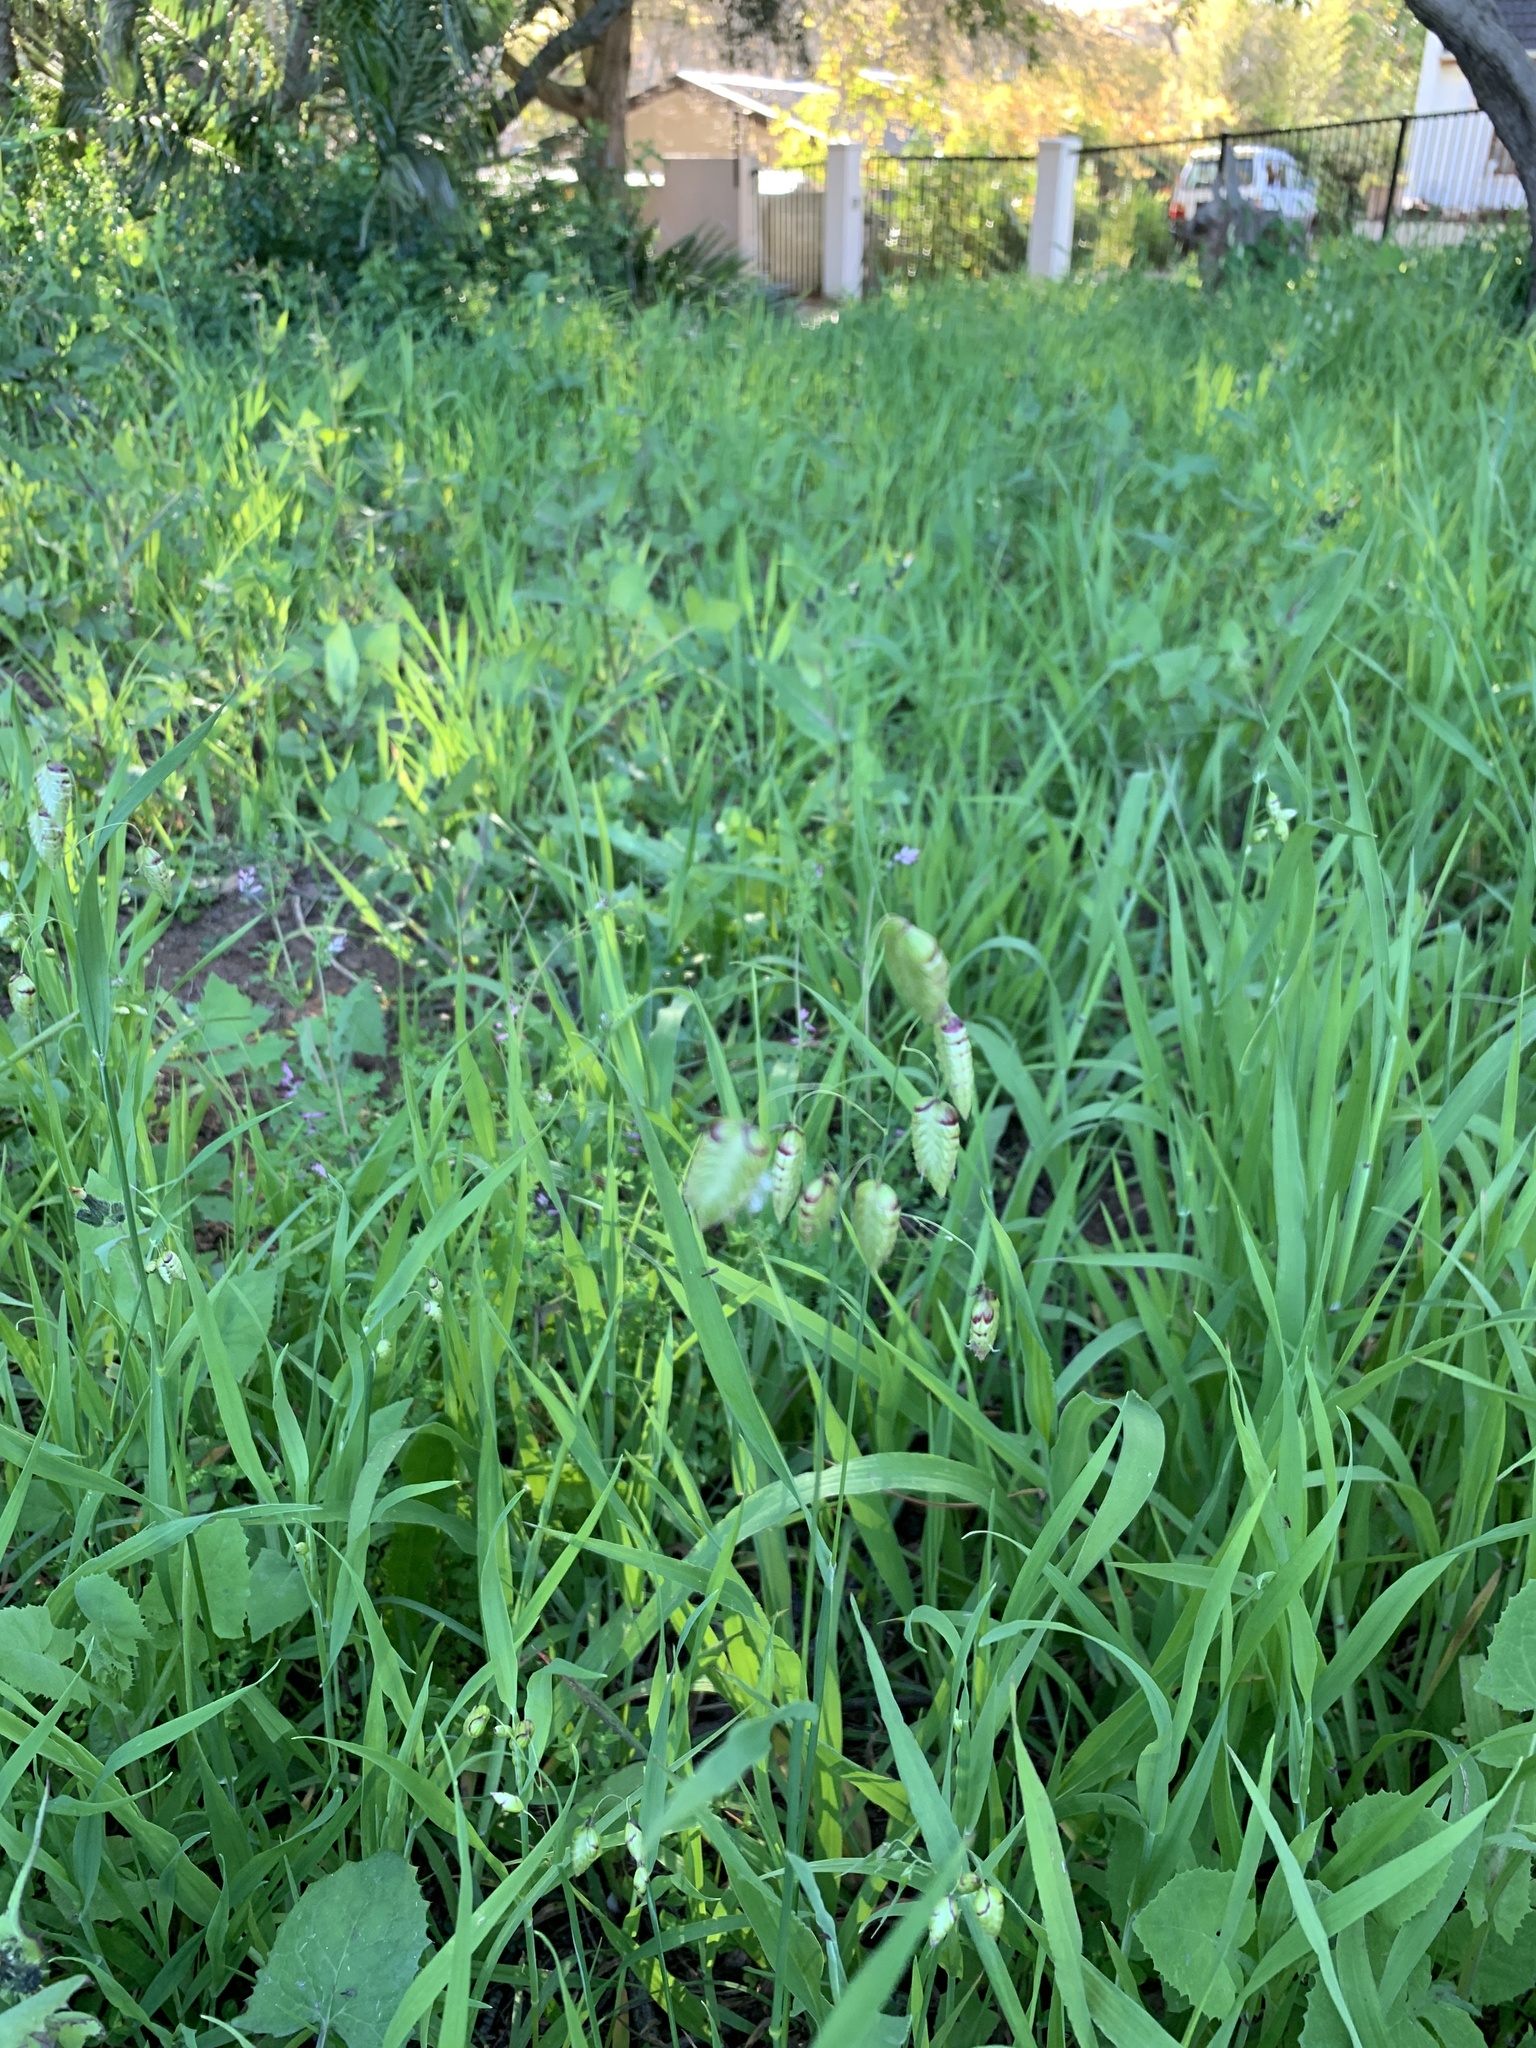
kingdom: Plantae
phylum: Tracheophyta
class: Liliopsida
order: Poales
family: Poaceae
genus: Briza
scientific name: Briza maxima
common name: Big quakinggrass
